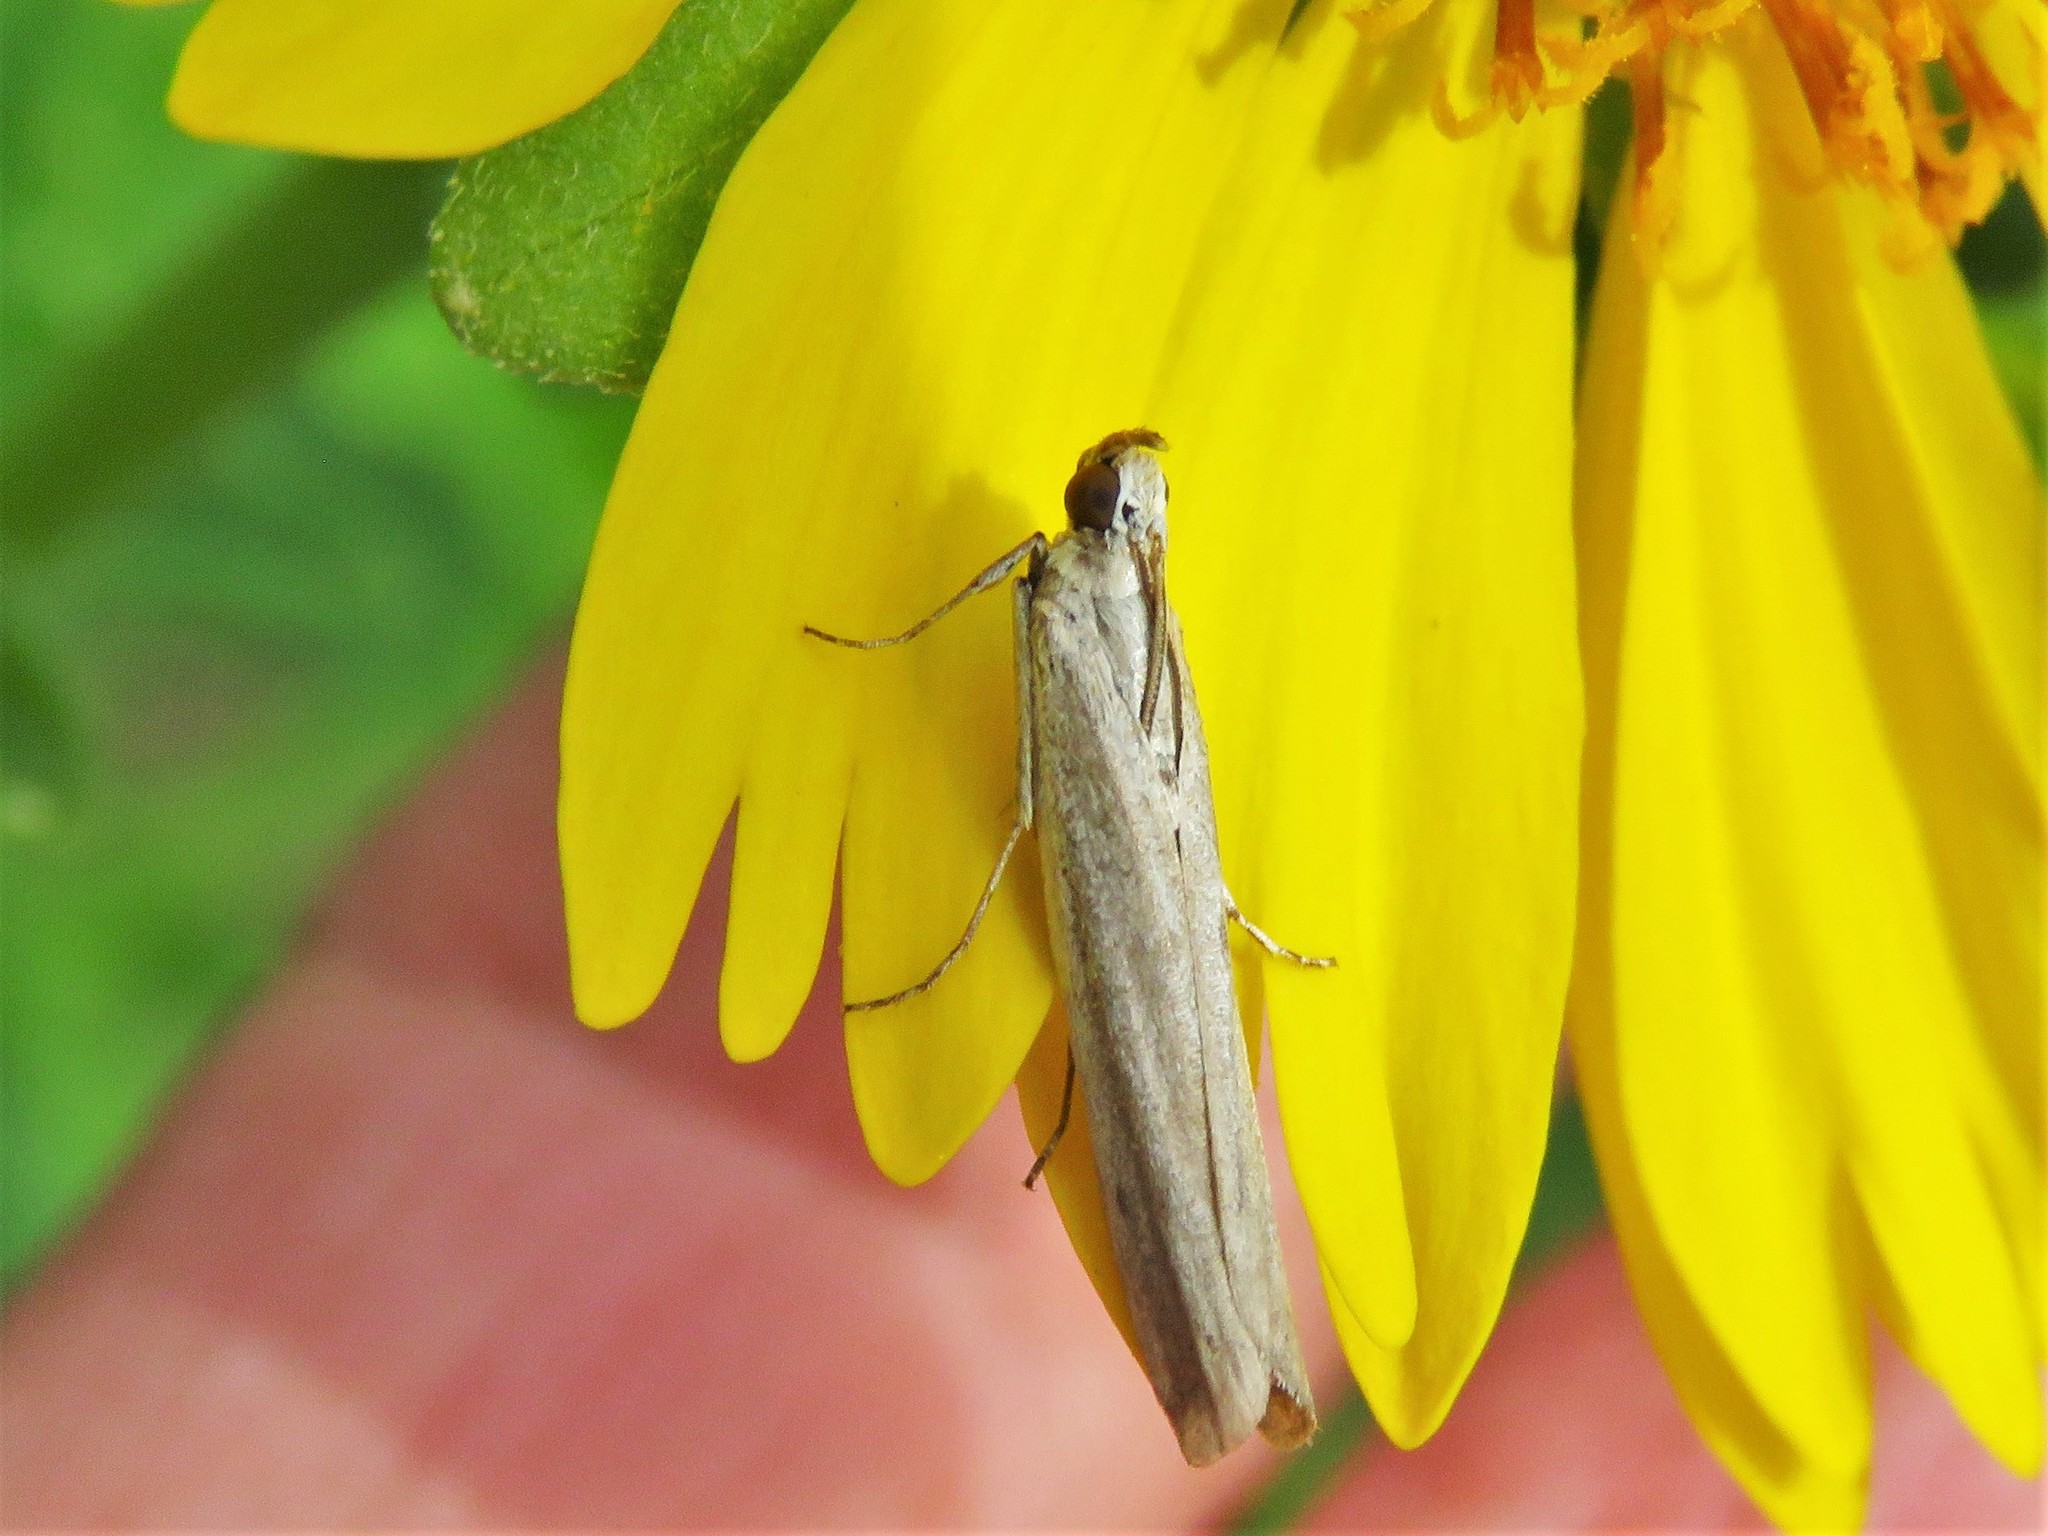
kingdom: Animalia
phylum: Arthropoda
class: Insecta
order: Lepidoptera
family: Pyralidae
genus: Homoeosoma
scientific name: Homoeosoma electella
